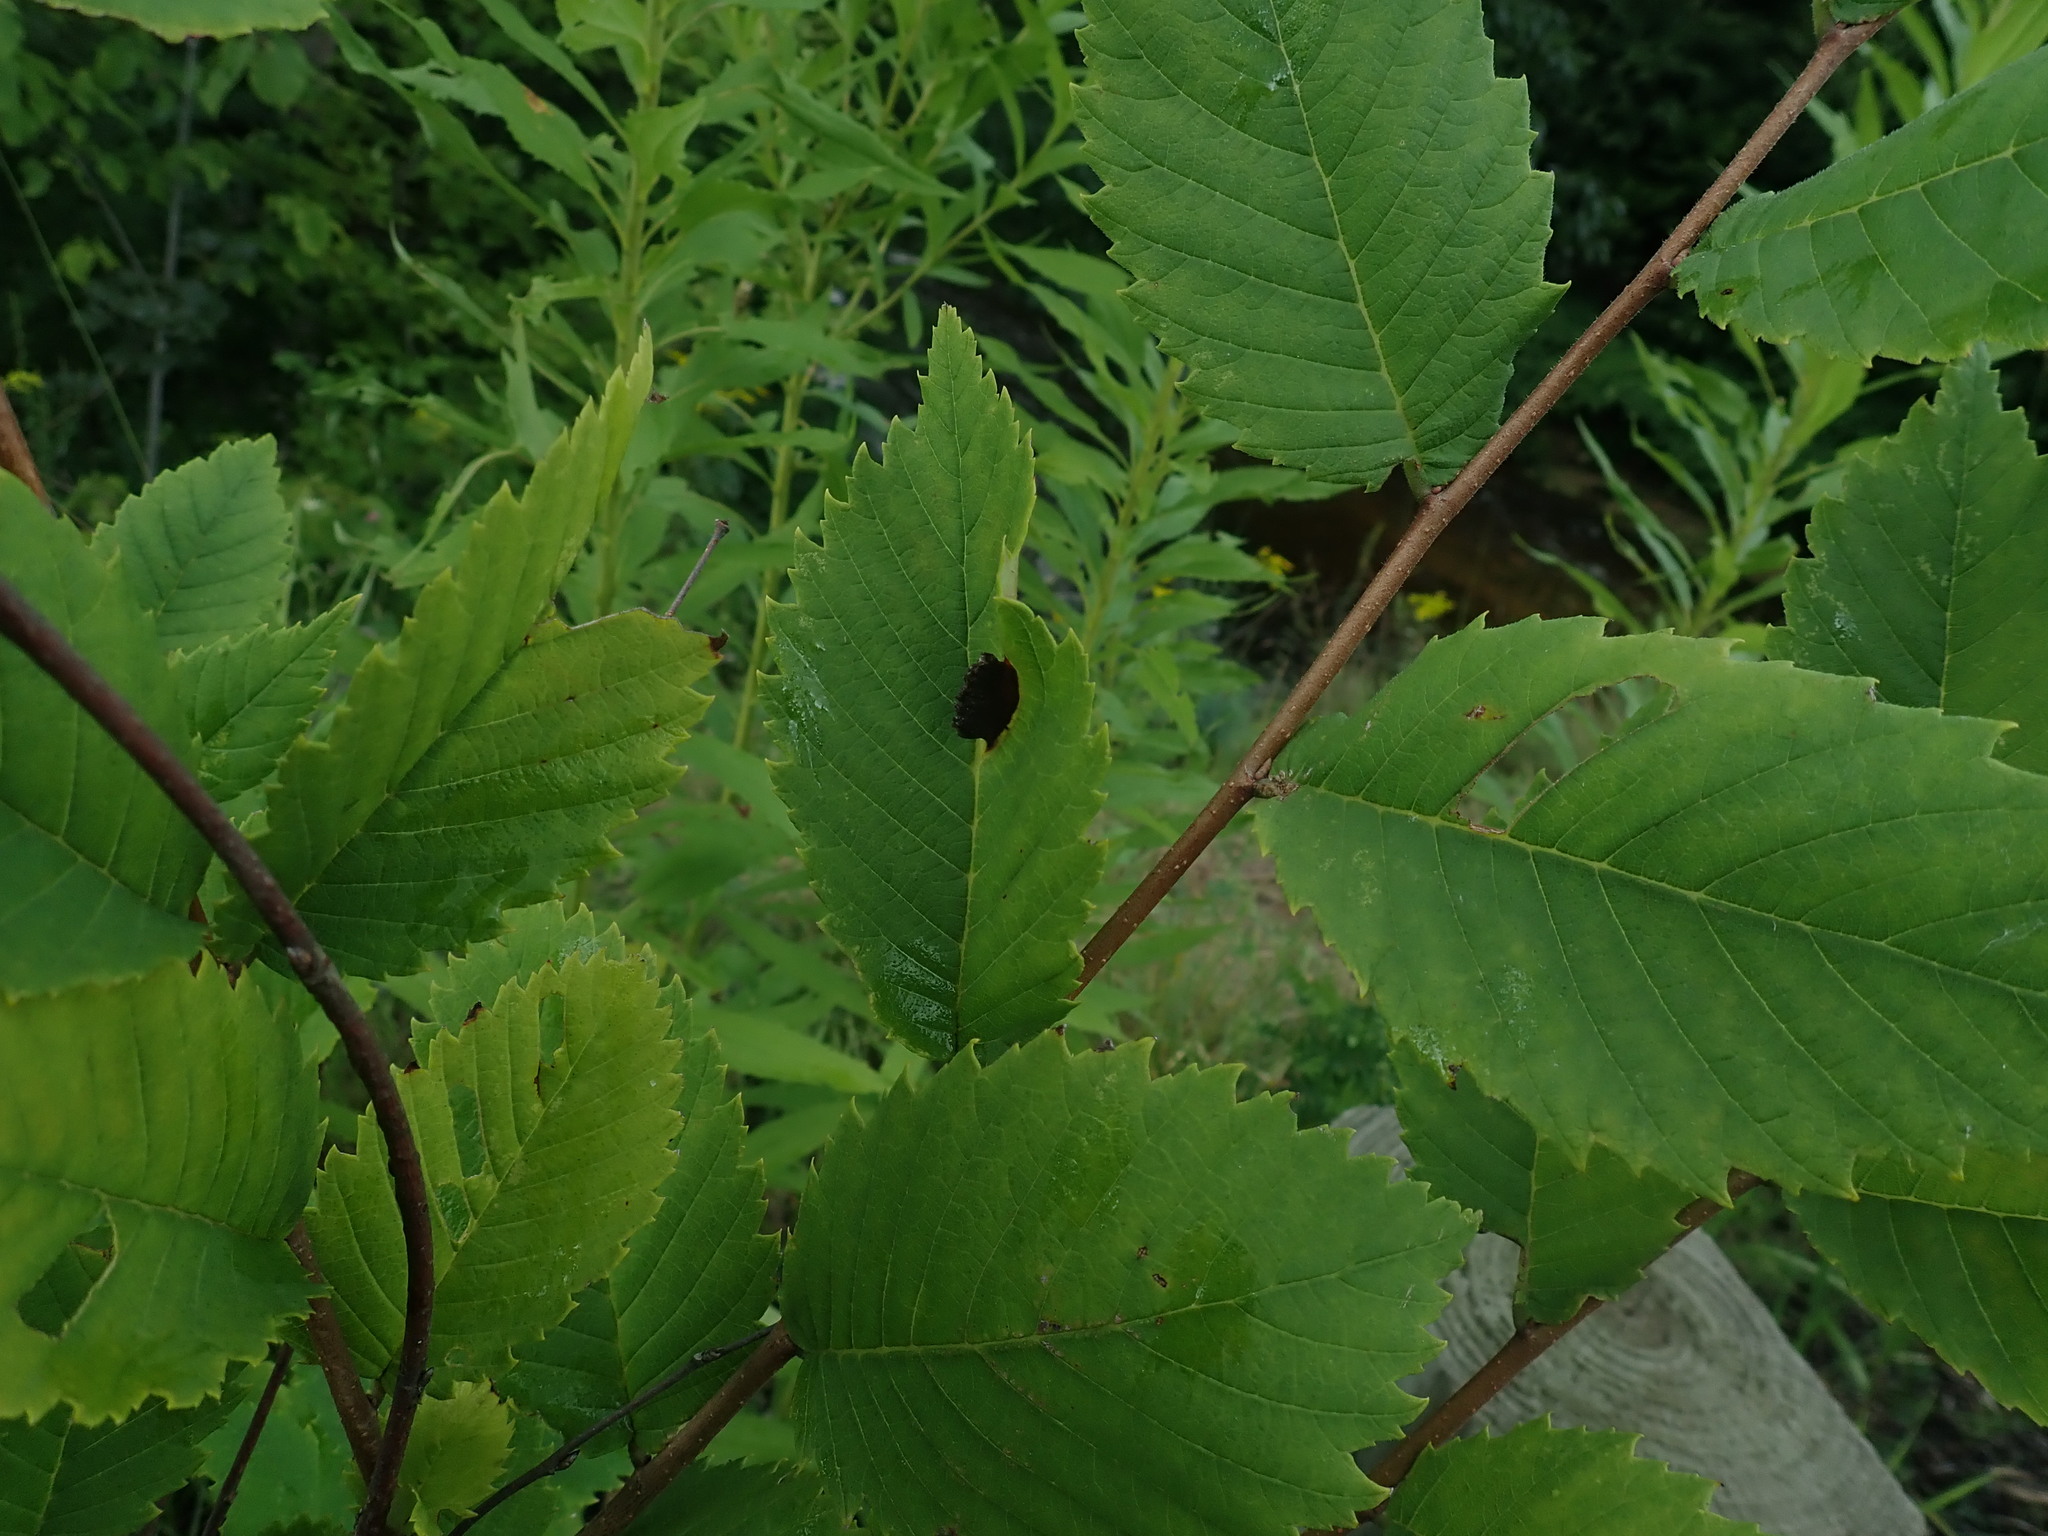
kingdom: Animalia
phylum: Arthropoda
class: Insecta
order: Hemiptera
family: Aphididae
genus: Colopha
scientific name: Colopha ulmicola
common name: Elm cockscombgall aphid
